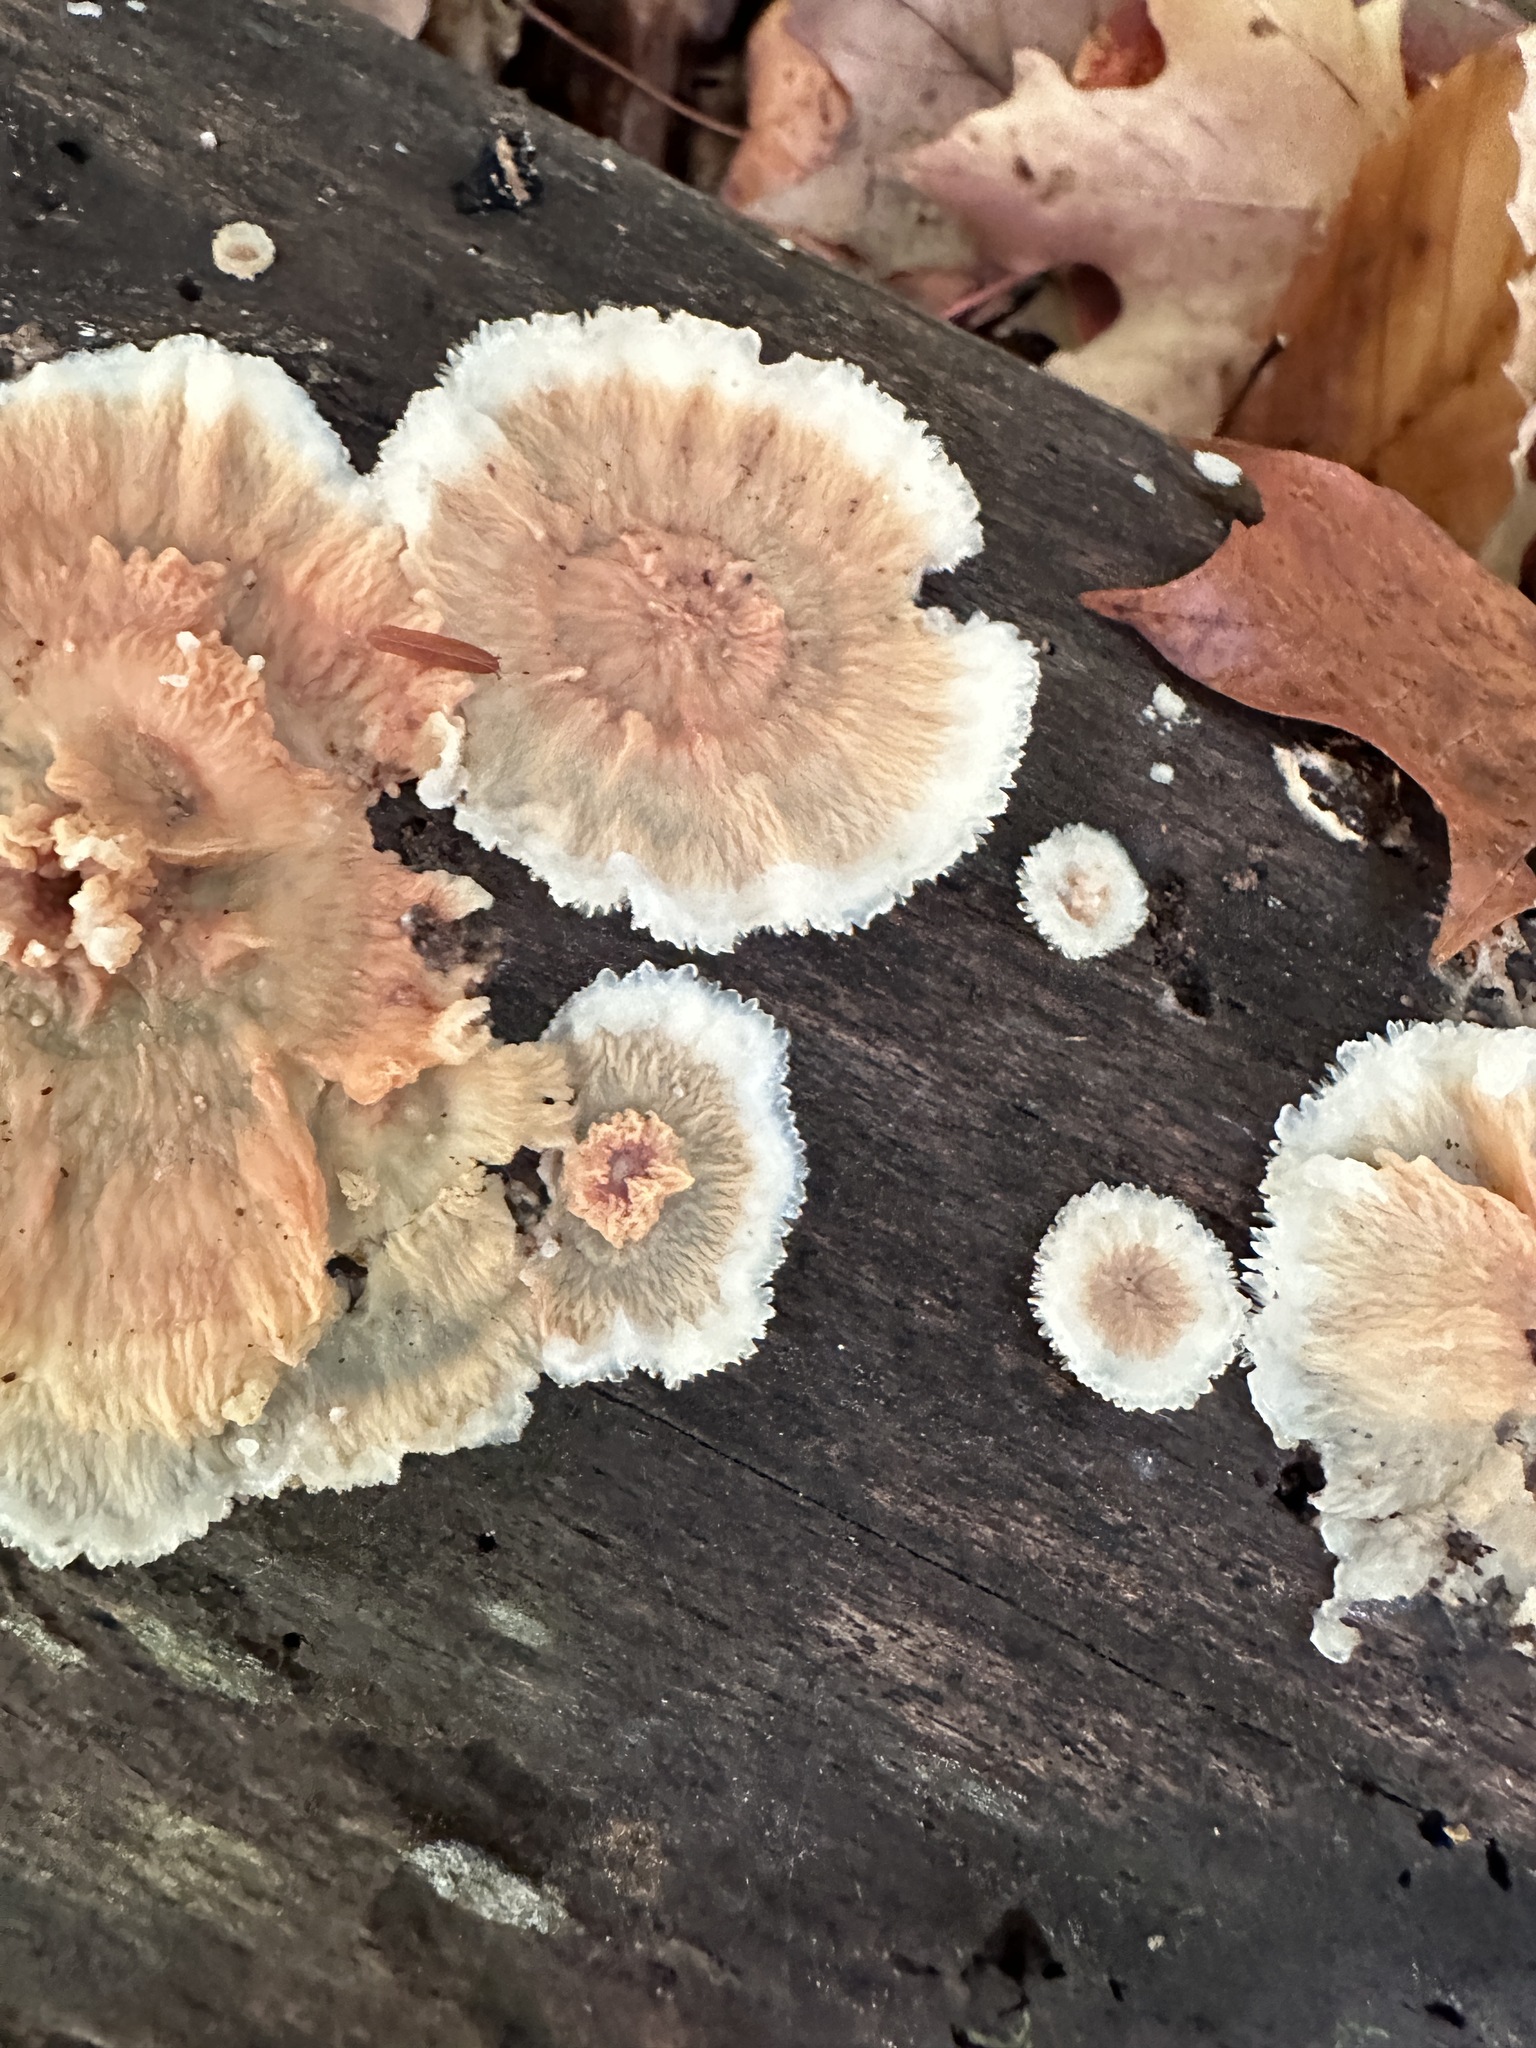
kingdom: Fungi
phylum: Basidiomycota
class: Agaricomycetes
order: Polyporales
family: Meruliaceae
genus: Phlebia
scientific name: Phlebia tremellosa
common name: Jelly rot
